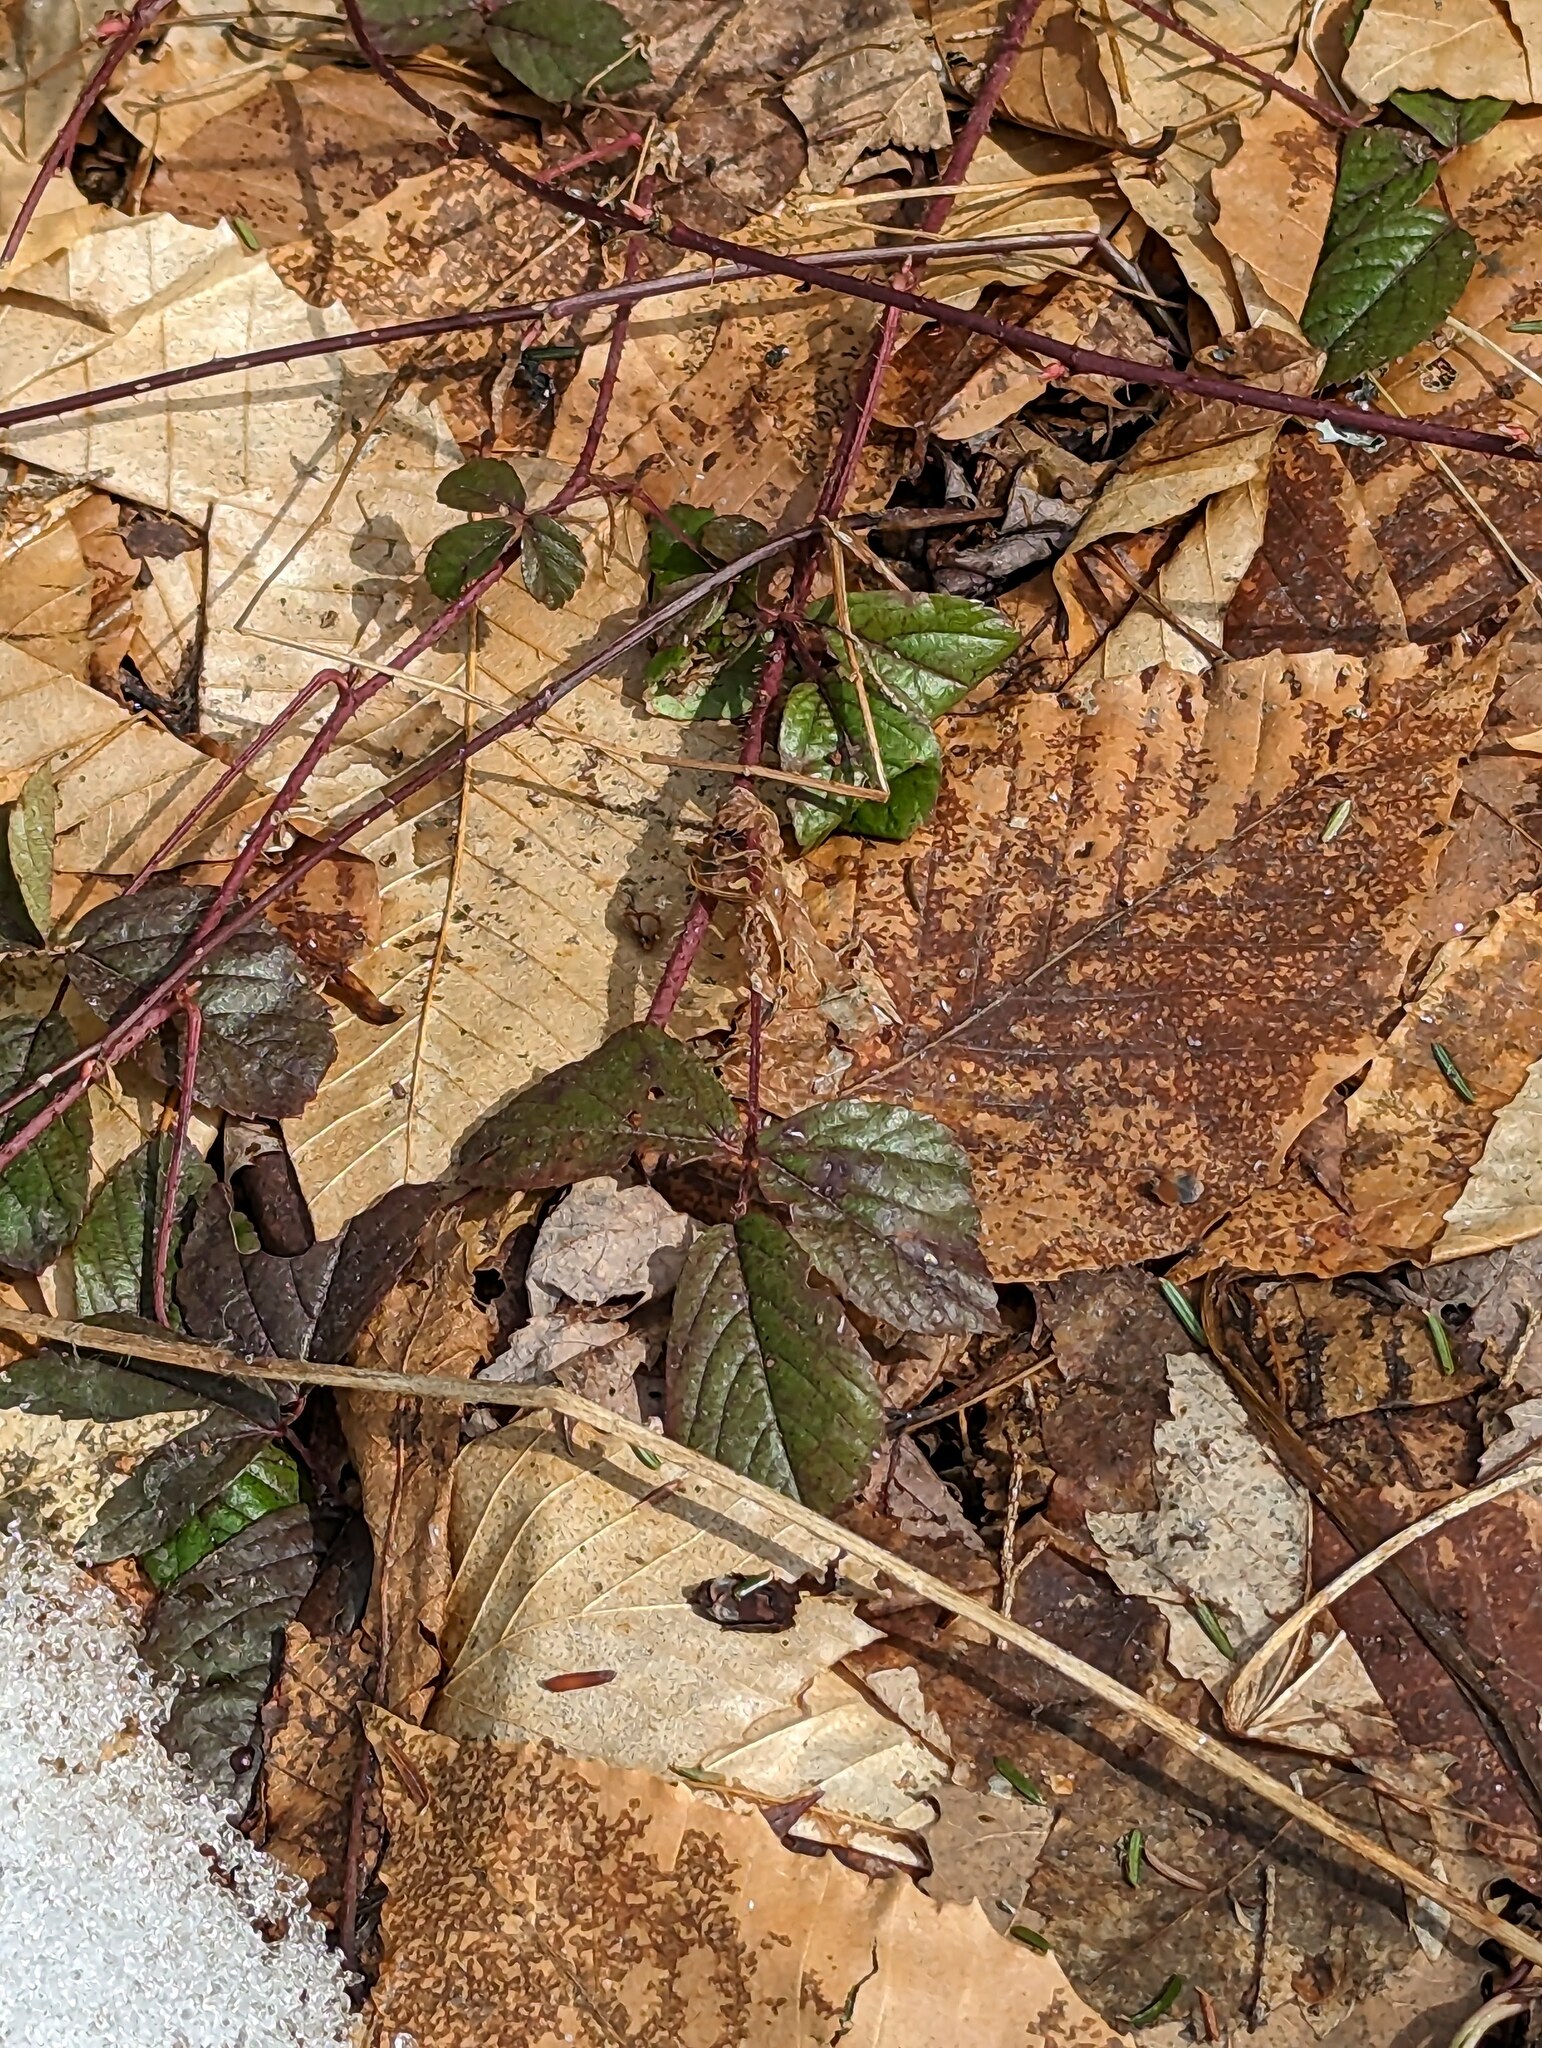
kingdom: Plantae
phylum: Tracheophyta
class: Magnoliopsida
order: Rosales
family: Rosaceae
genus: Rubus
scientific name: Rubus hispidus
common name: Running blackberry
